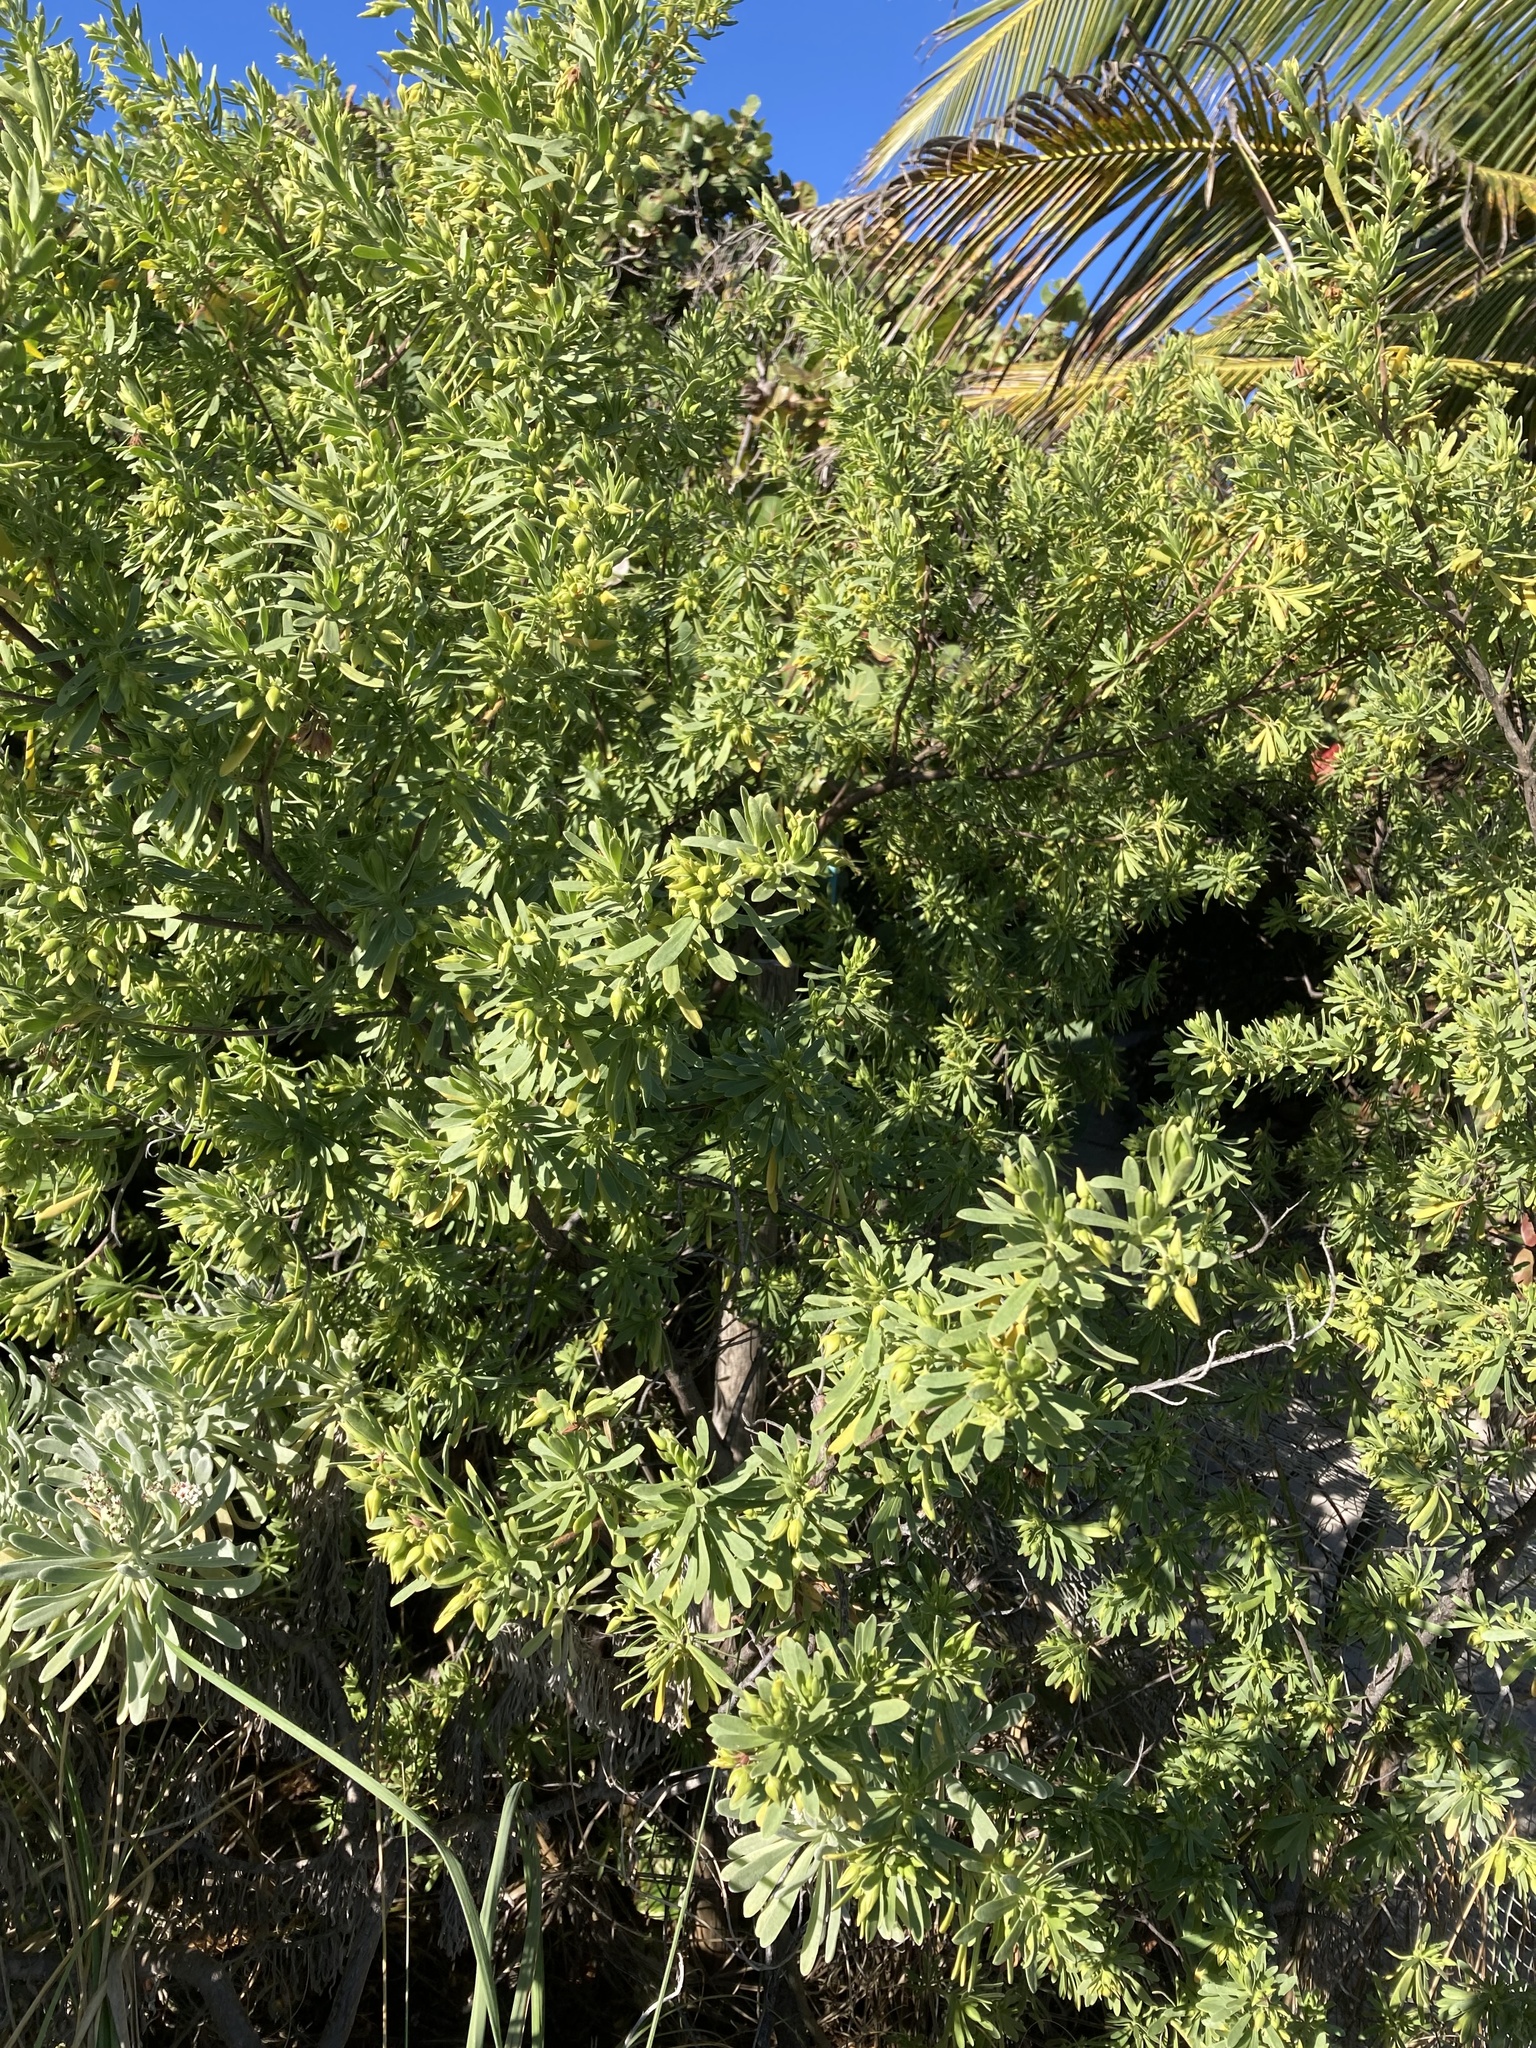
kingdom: Plantae
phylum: Tracheophyta
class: Magnoliopsida
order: Fabales
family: Surianaceae
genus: Suriana
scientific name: Suriana maritima
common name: Bay-cedar
